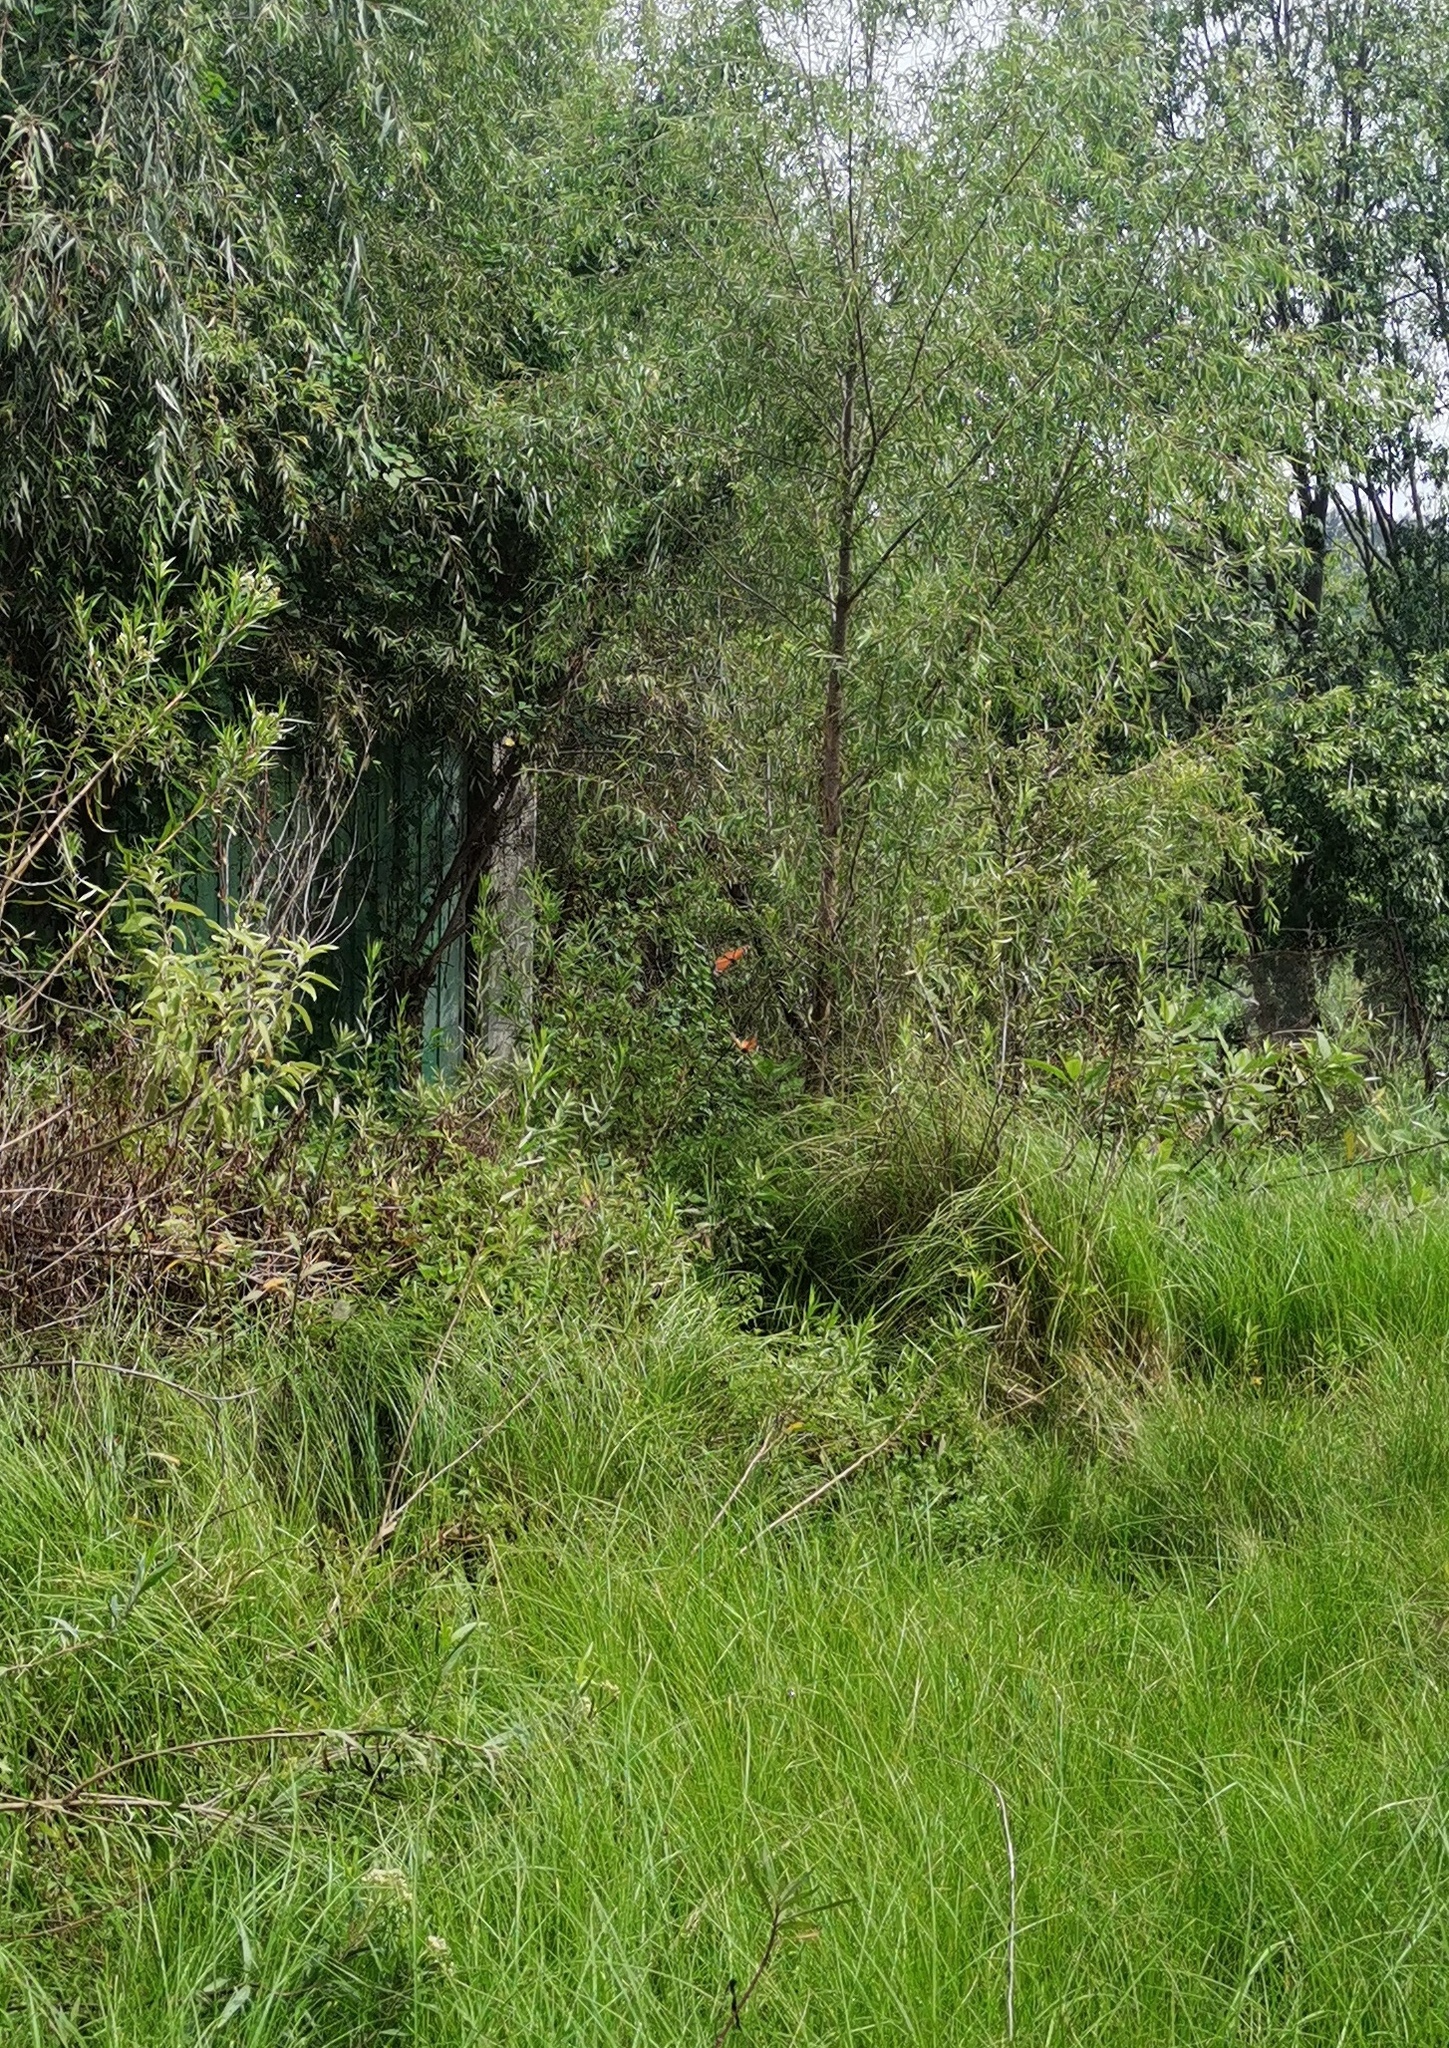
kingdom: Animalia
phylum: Arthropoda
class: Insecta
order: Lepidoptera
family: Nymphalidae
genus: Danaus
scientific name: Danaus plexippus
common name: Monarch
